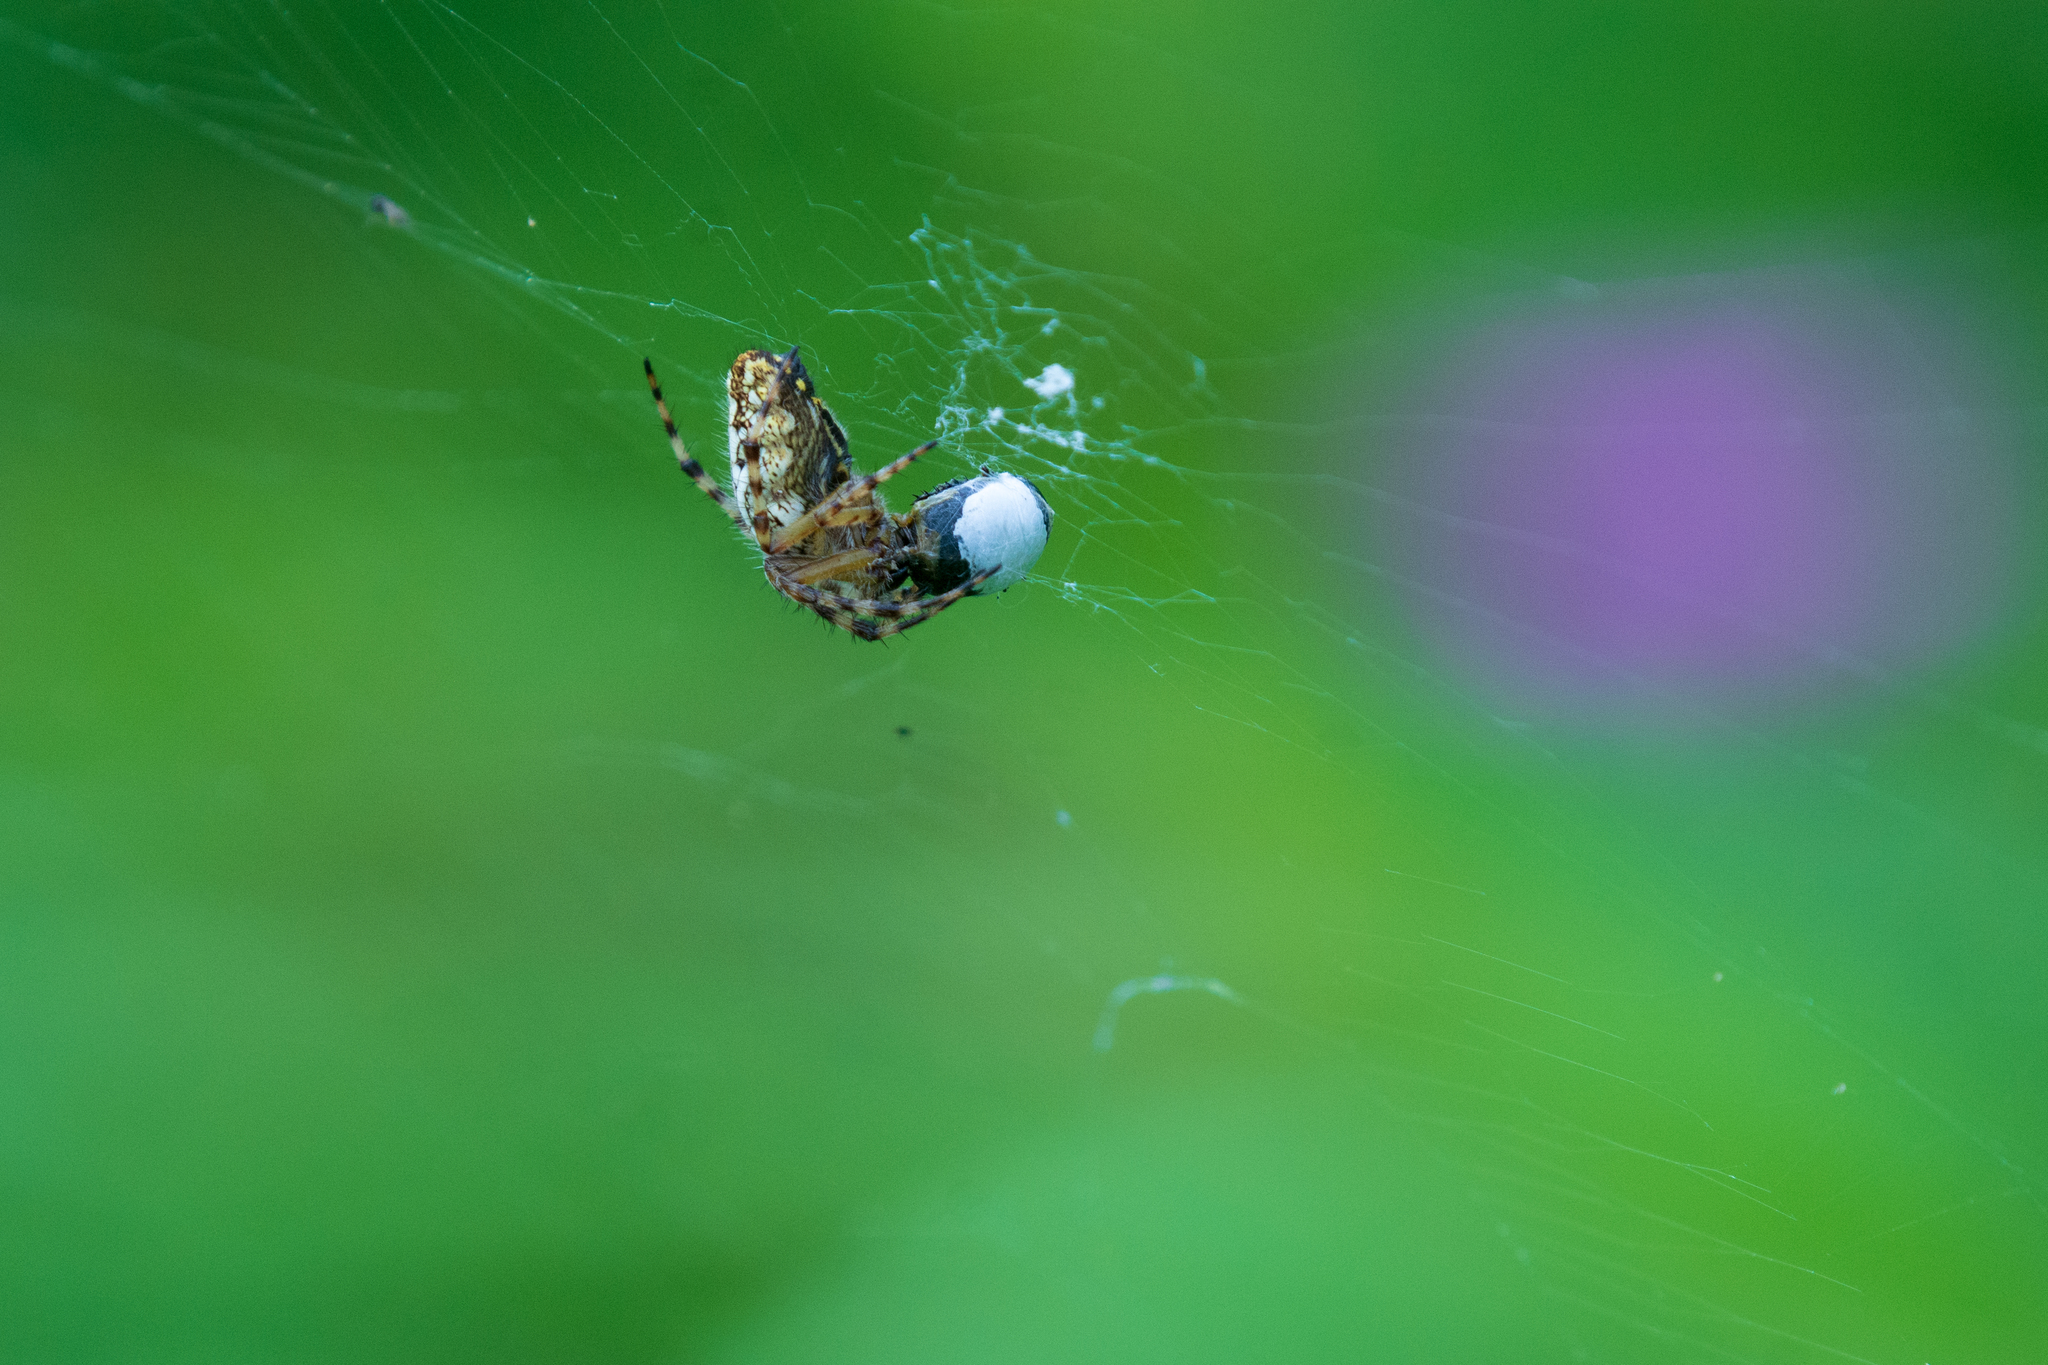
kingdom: Animalia
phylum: Arthropoda
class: Arachnida
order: Araneae
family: Araneidae
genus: Aculepeira
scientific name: Aculepeira ceropegia
